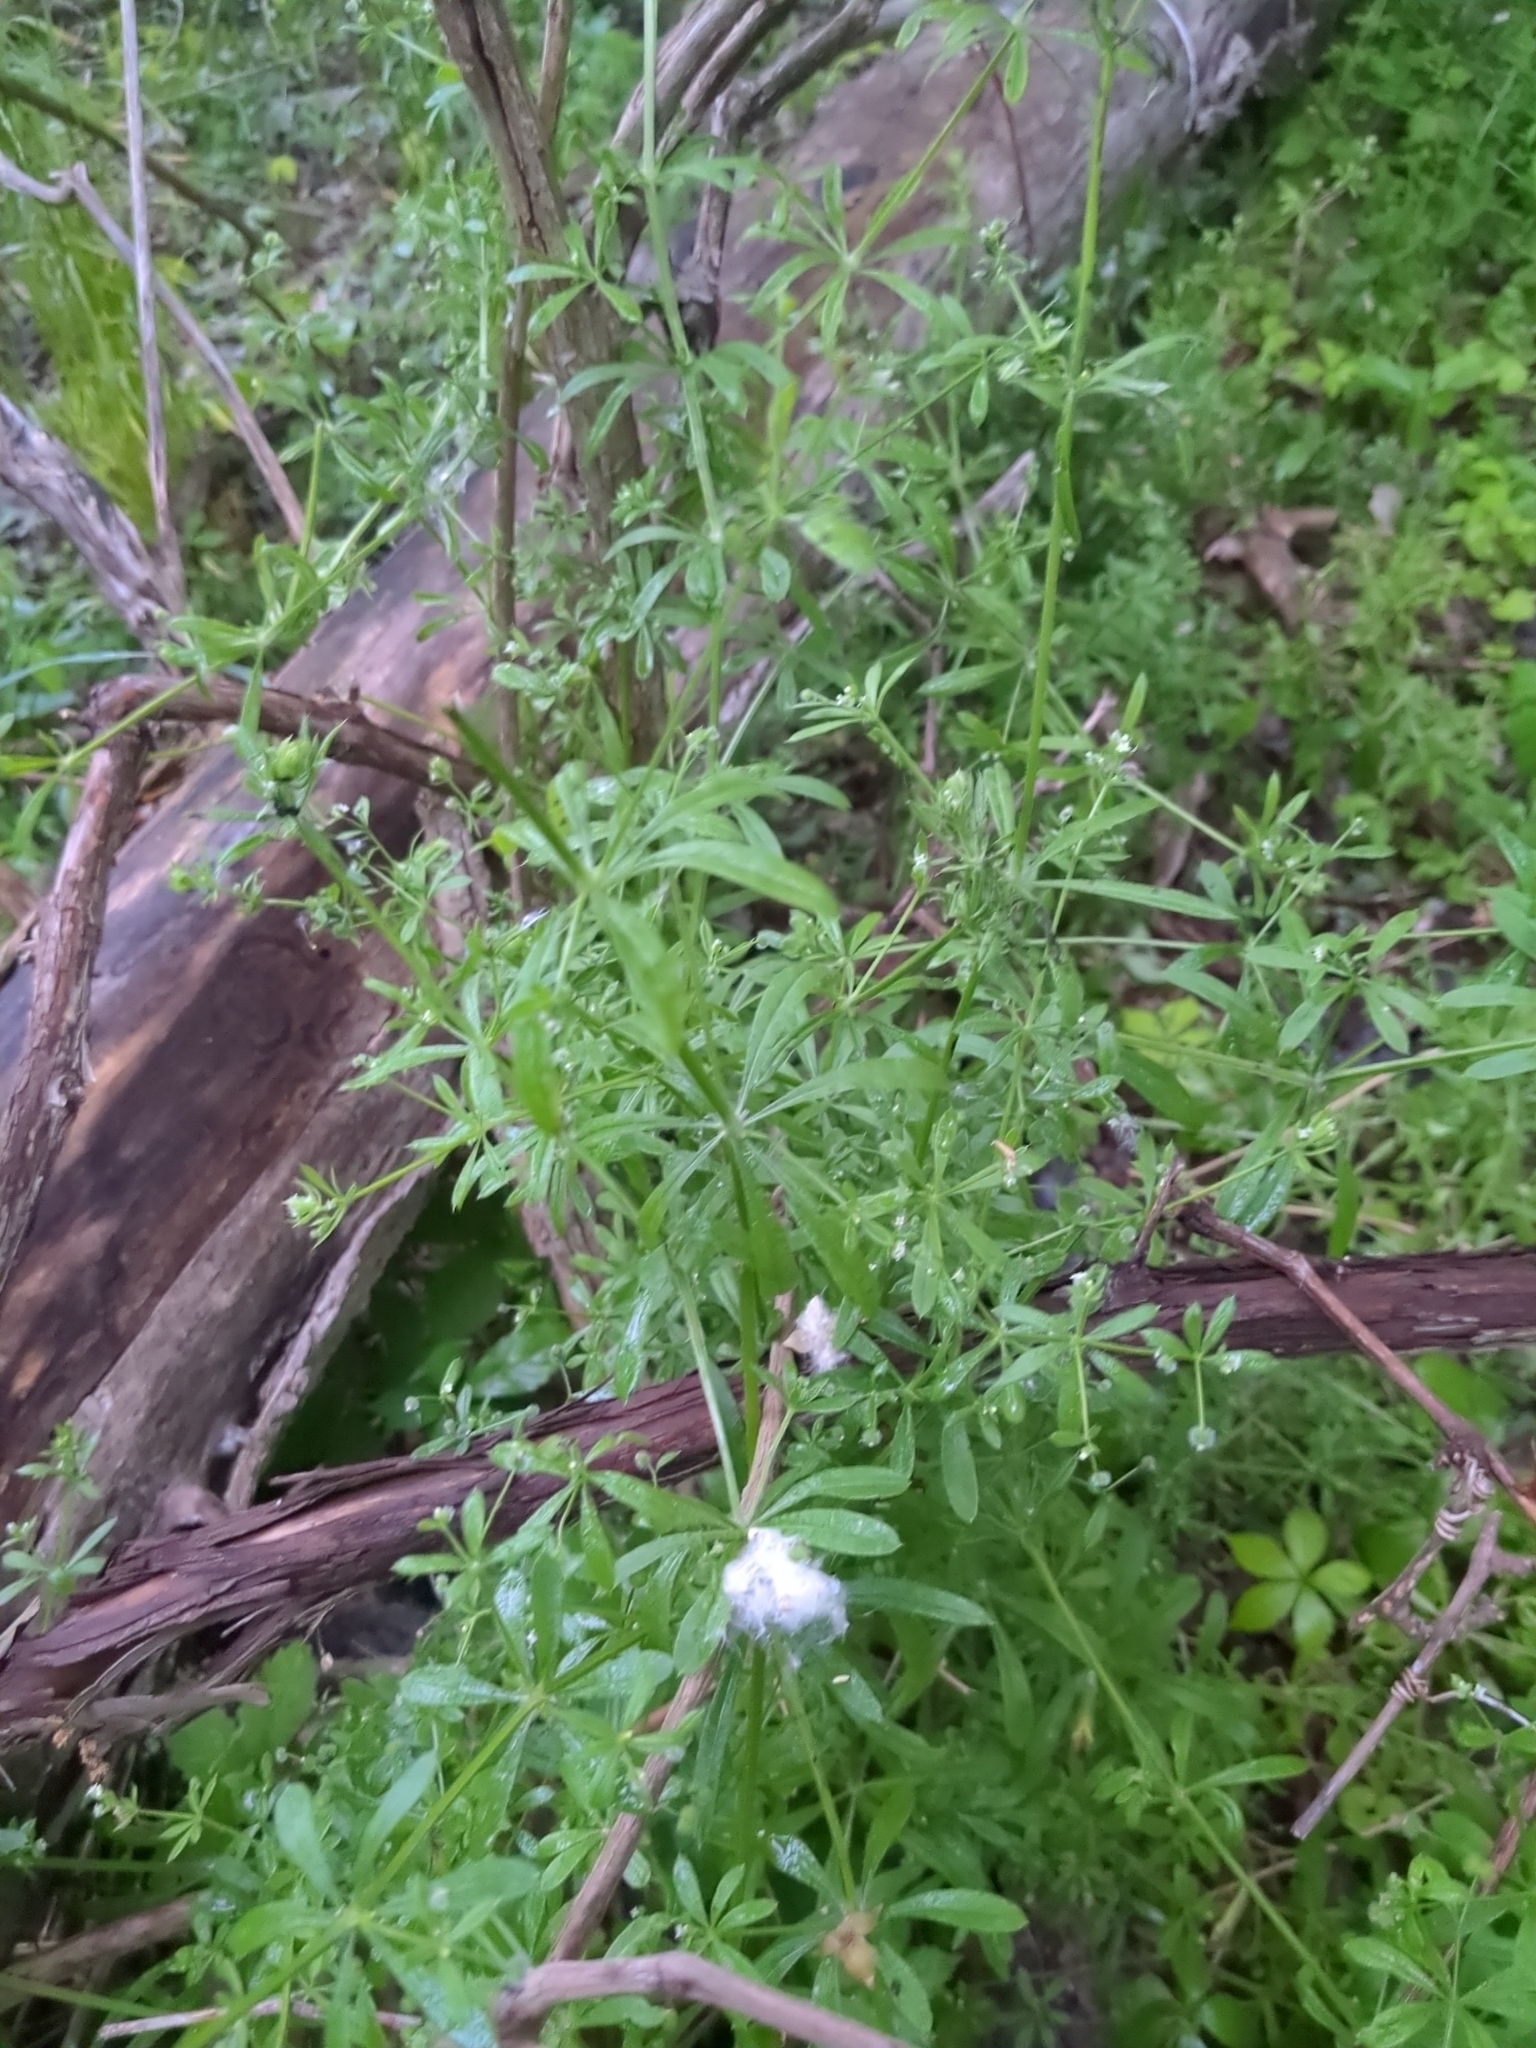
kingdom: Plantae
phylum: Tracheophyta
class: Magnoliopsida
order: Gentianales
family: Rubiaceae
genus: Galium
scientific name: Galium aparine
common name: Cleavers
